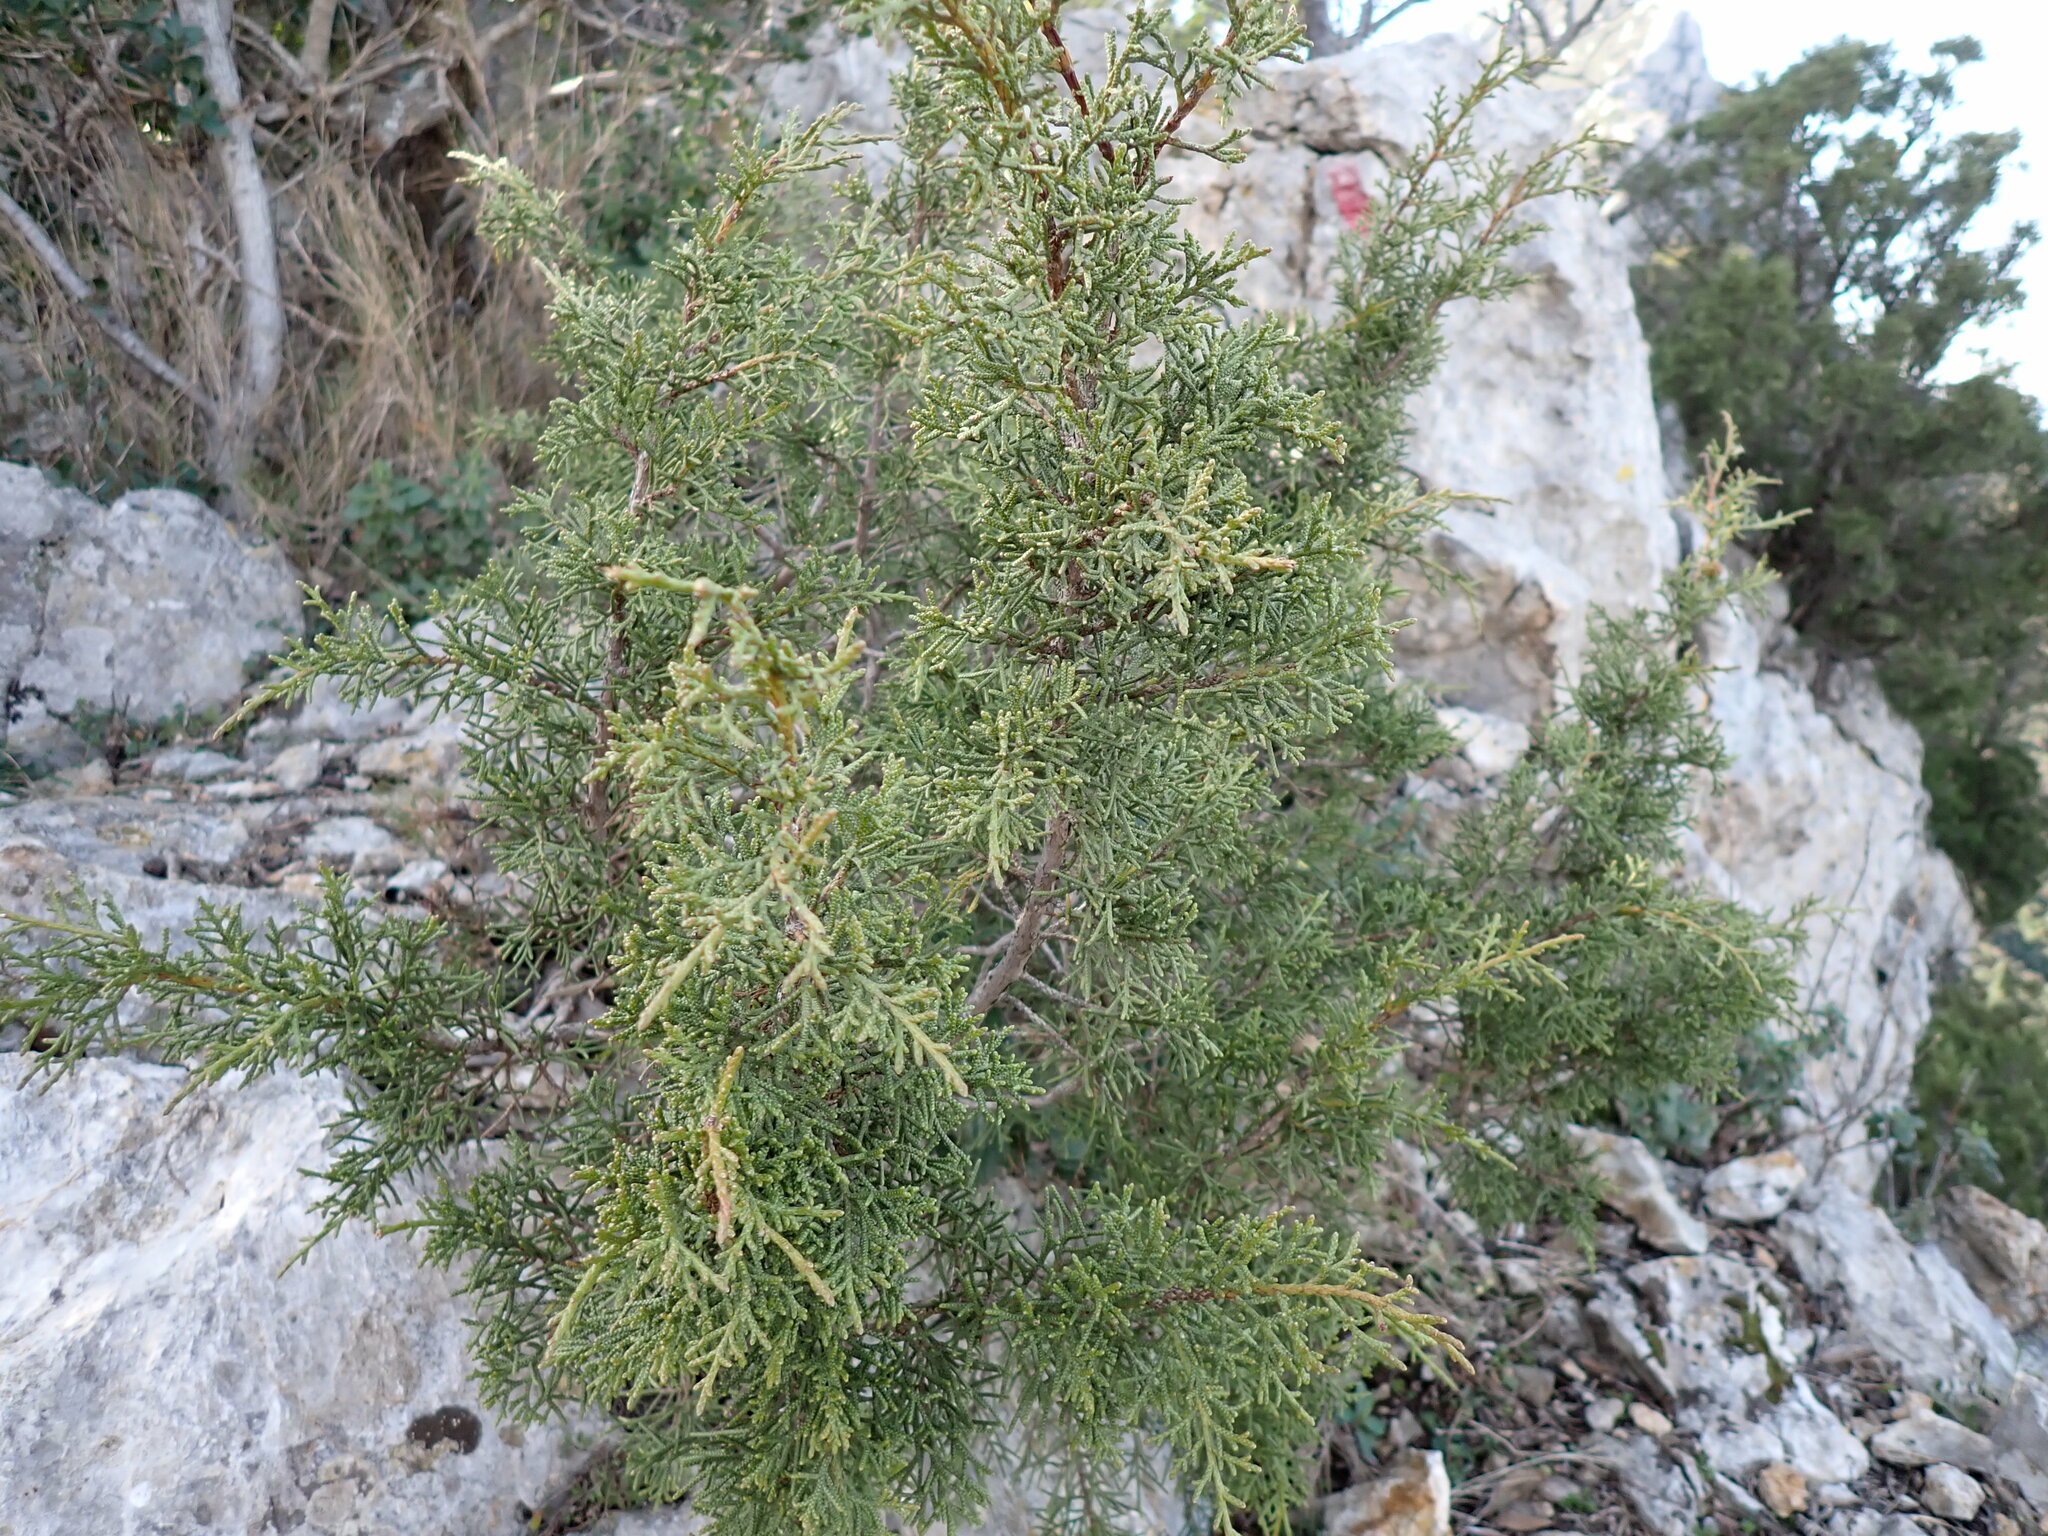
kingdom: Plantae
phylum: Tracheophyta
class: Pinopsida
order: Pinales
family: Cupressaceae
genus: Juniperus
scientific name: Juniperus phoenicea
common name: Phoenician juniper
